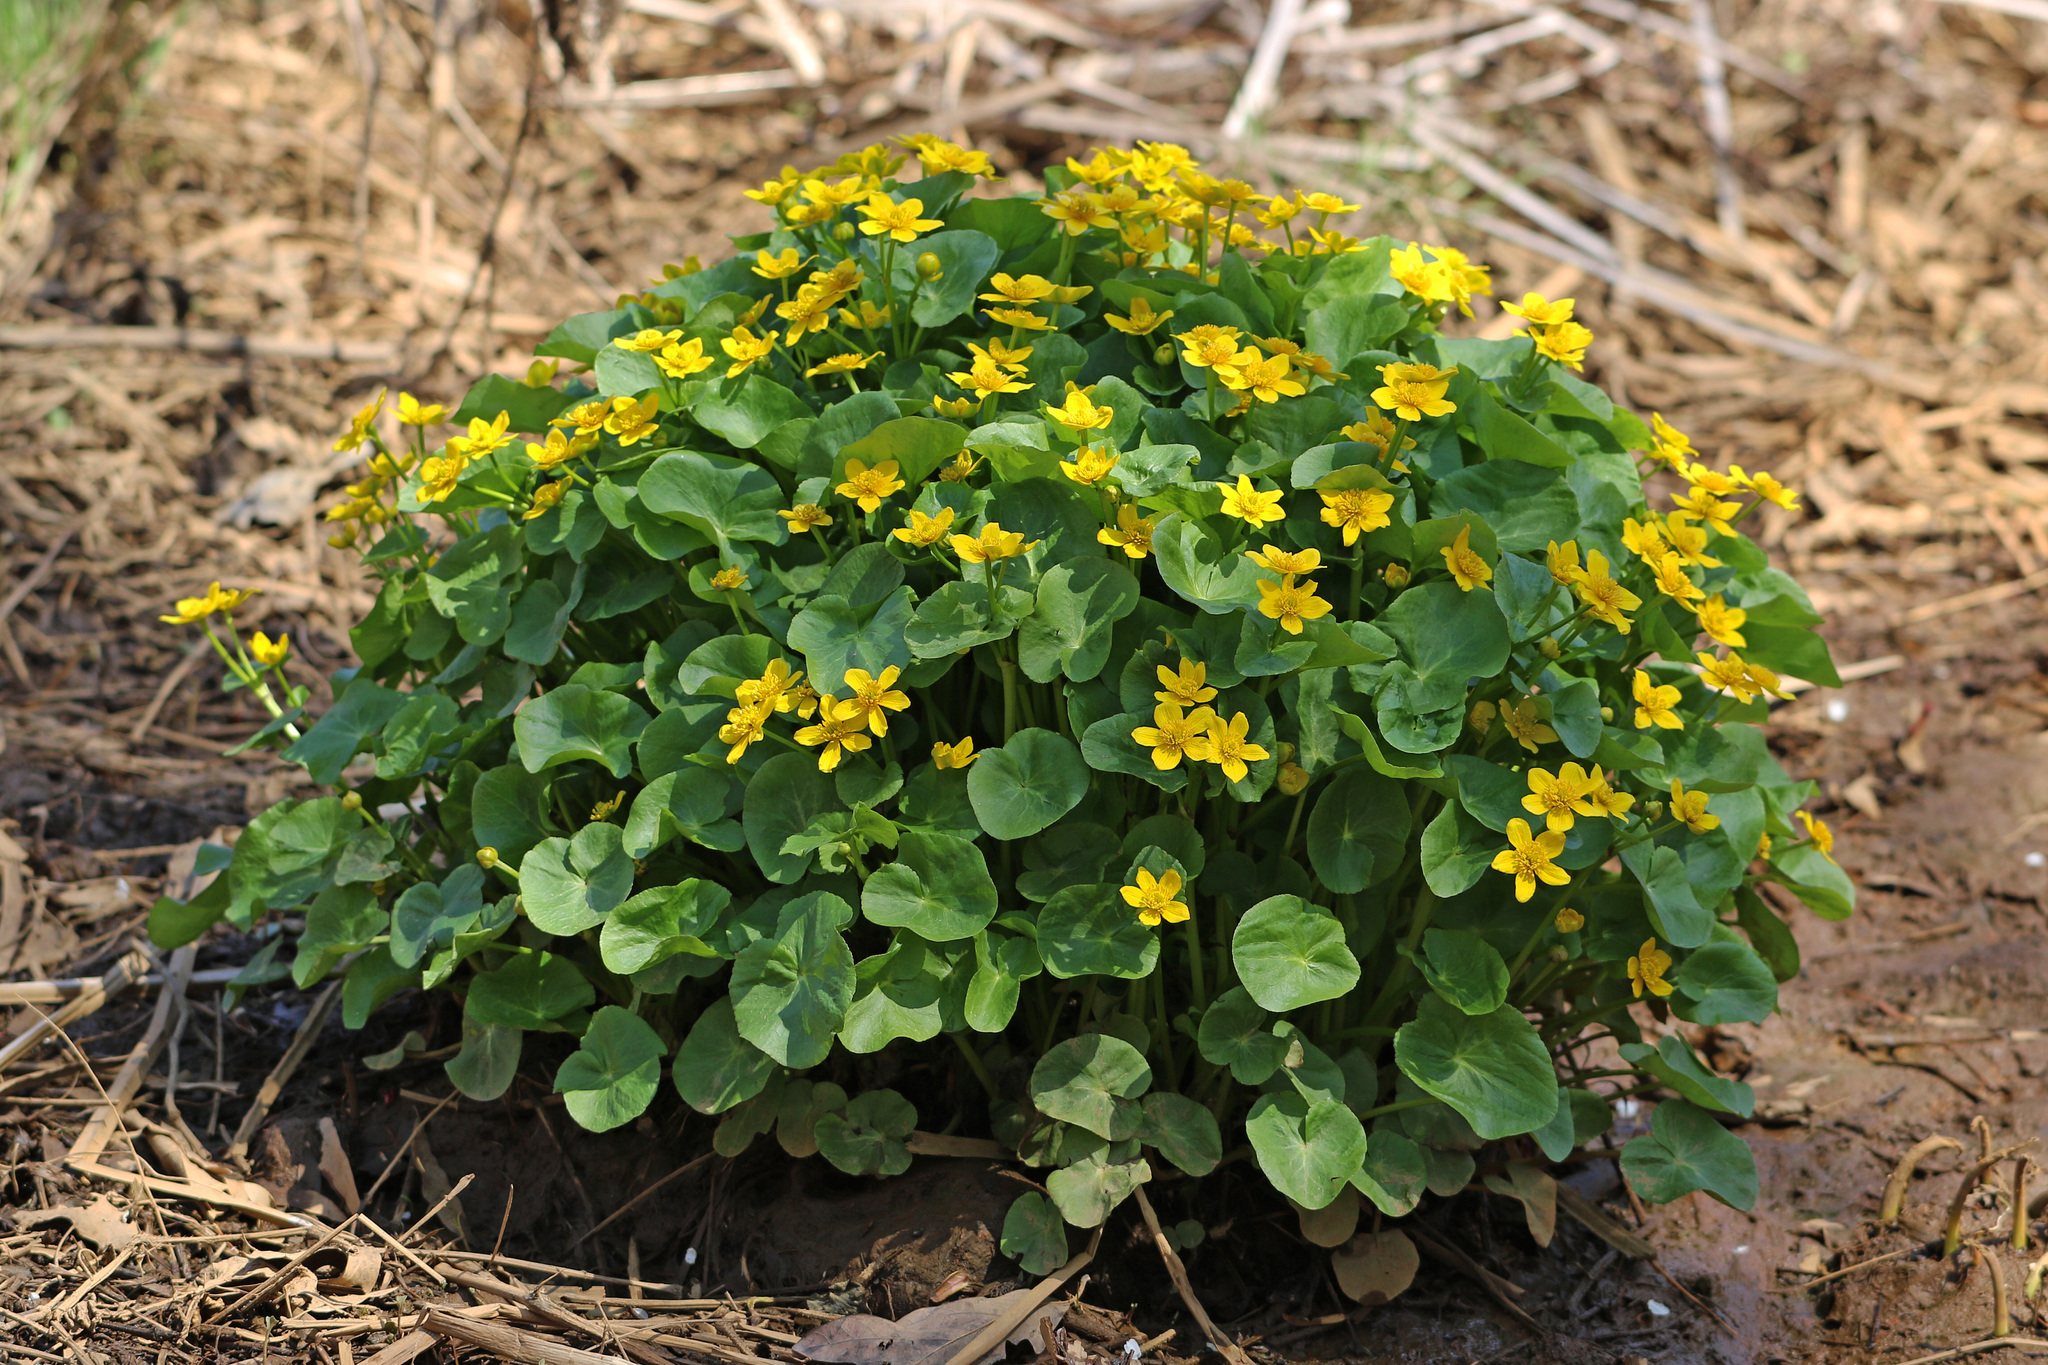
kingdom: Plantae
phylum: Tracheophyta
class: Magnoliopsida
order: Ranunculales
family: Ranunculaceae
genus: Caltha
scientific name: Caltha palustris
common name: Marsh marigold
